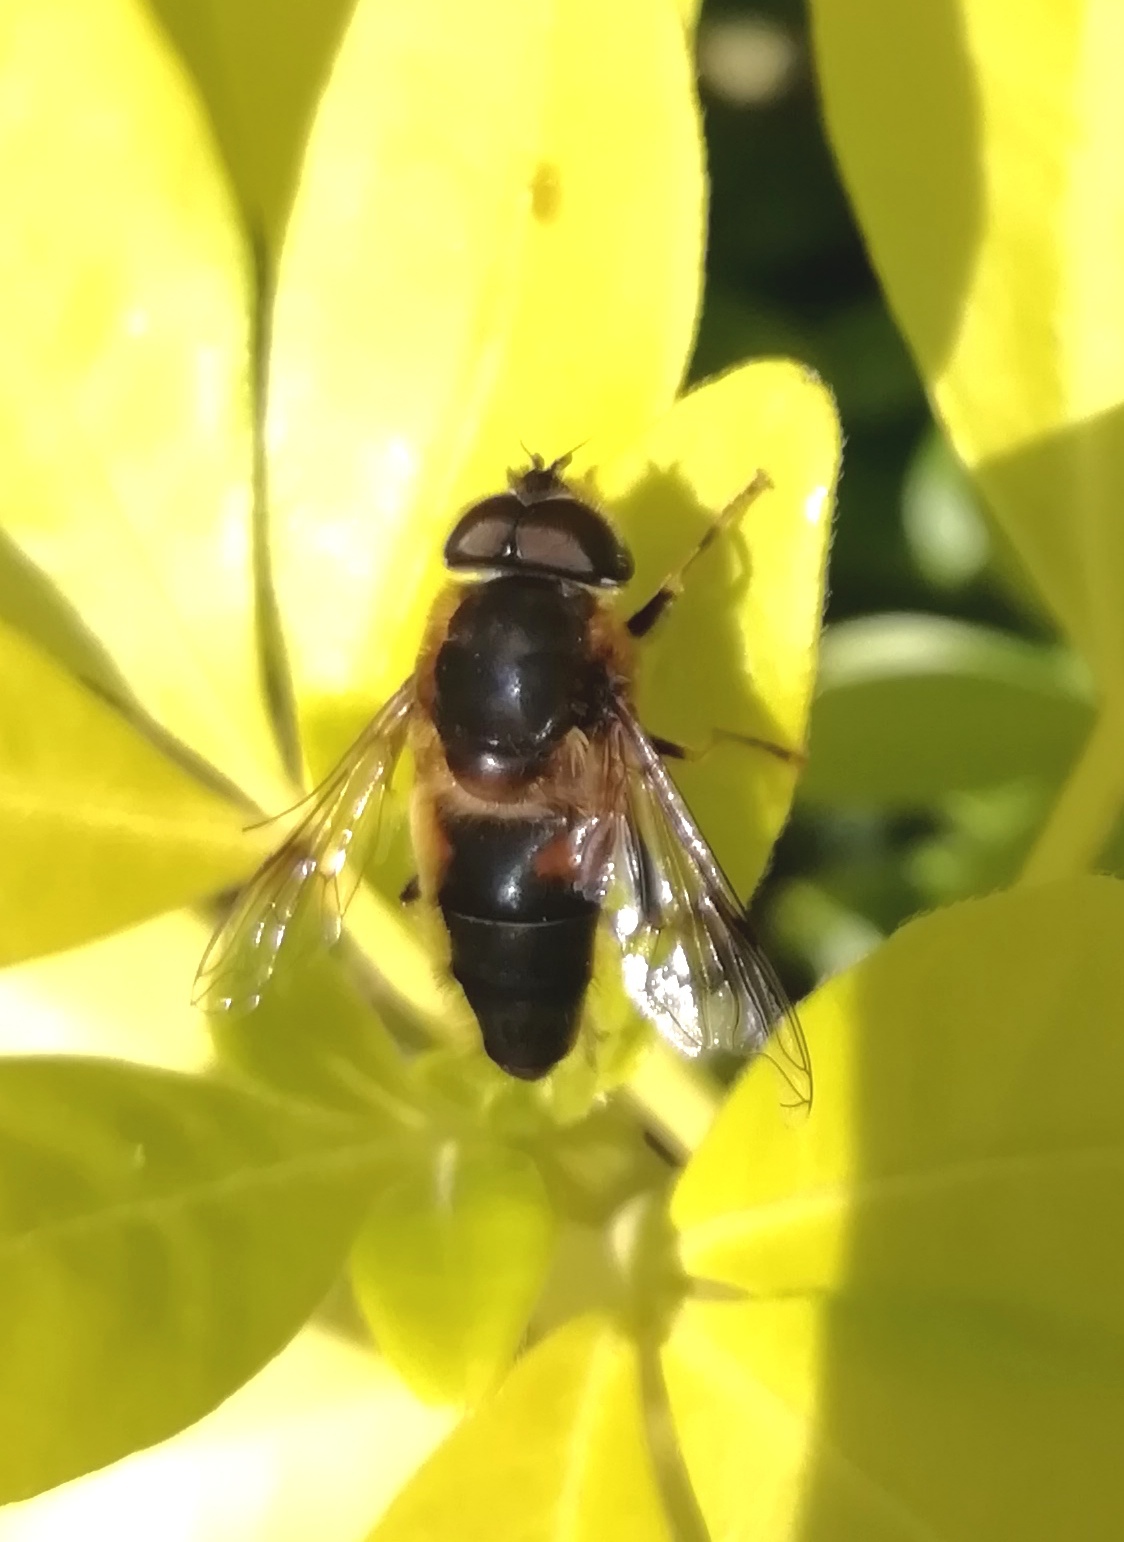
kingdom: Animalia
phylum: Arthropoda
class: Insecta
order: Diptera
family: Syrphidae
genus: Eristalis
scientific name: Eristalis pertinax
